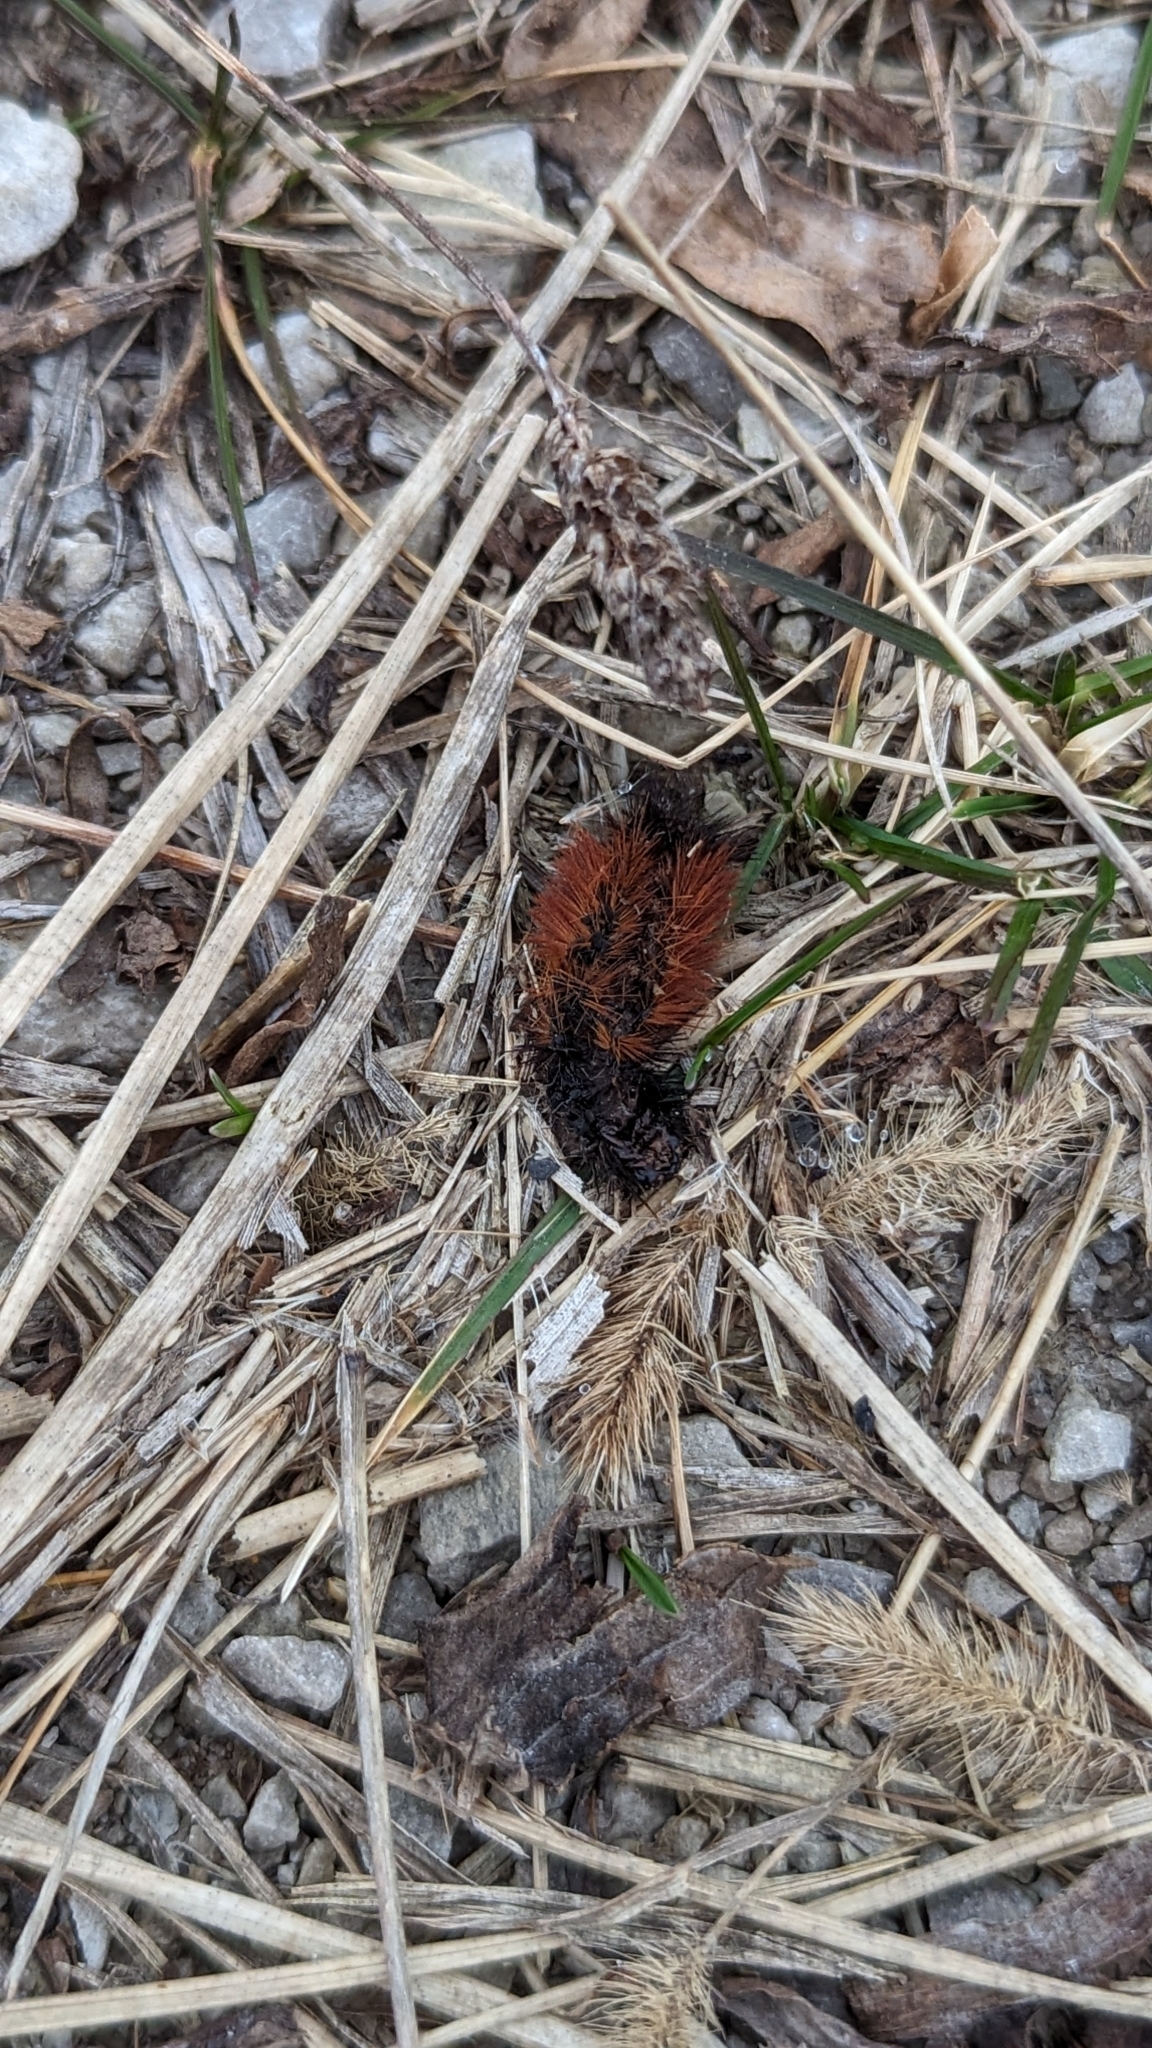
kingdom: Animalia
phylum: Arthropoda
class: Insecta
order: Lepidoptera
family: Erebidae
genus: Pyrrharctia
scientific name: Pyrrharctia isabella
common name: Isabella tiger moth
